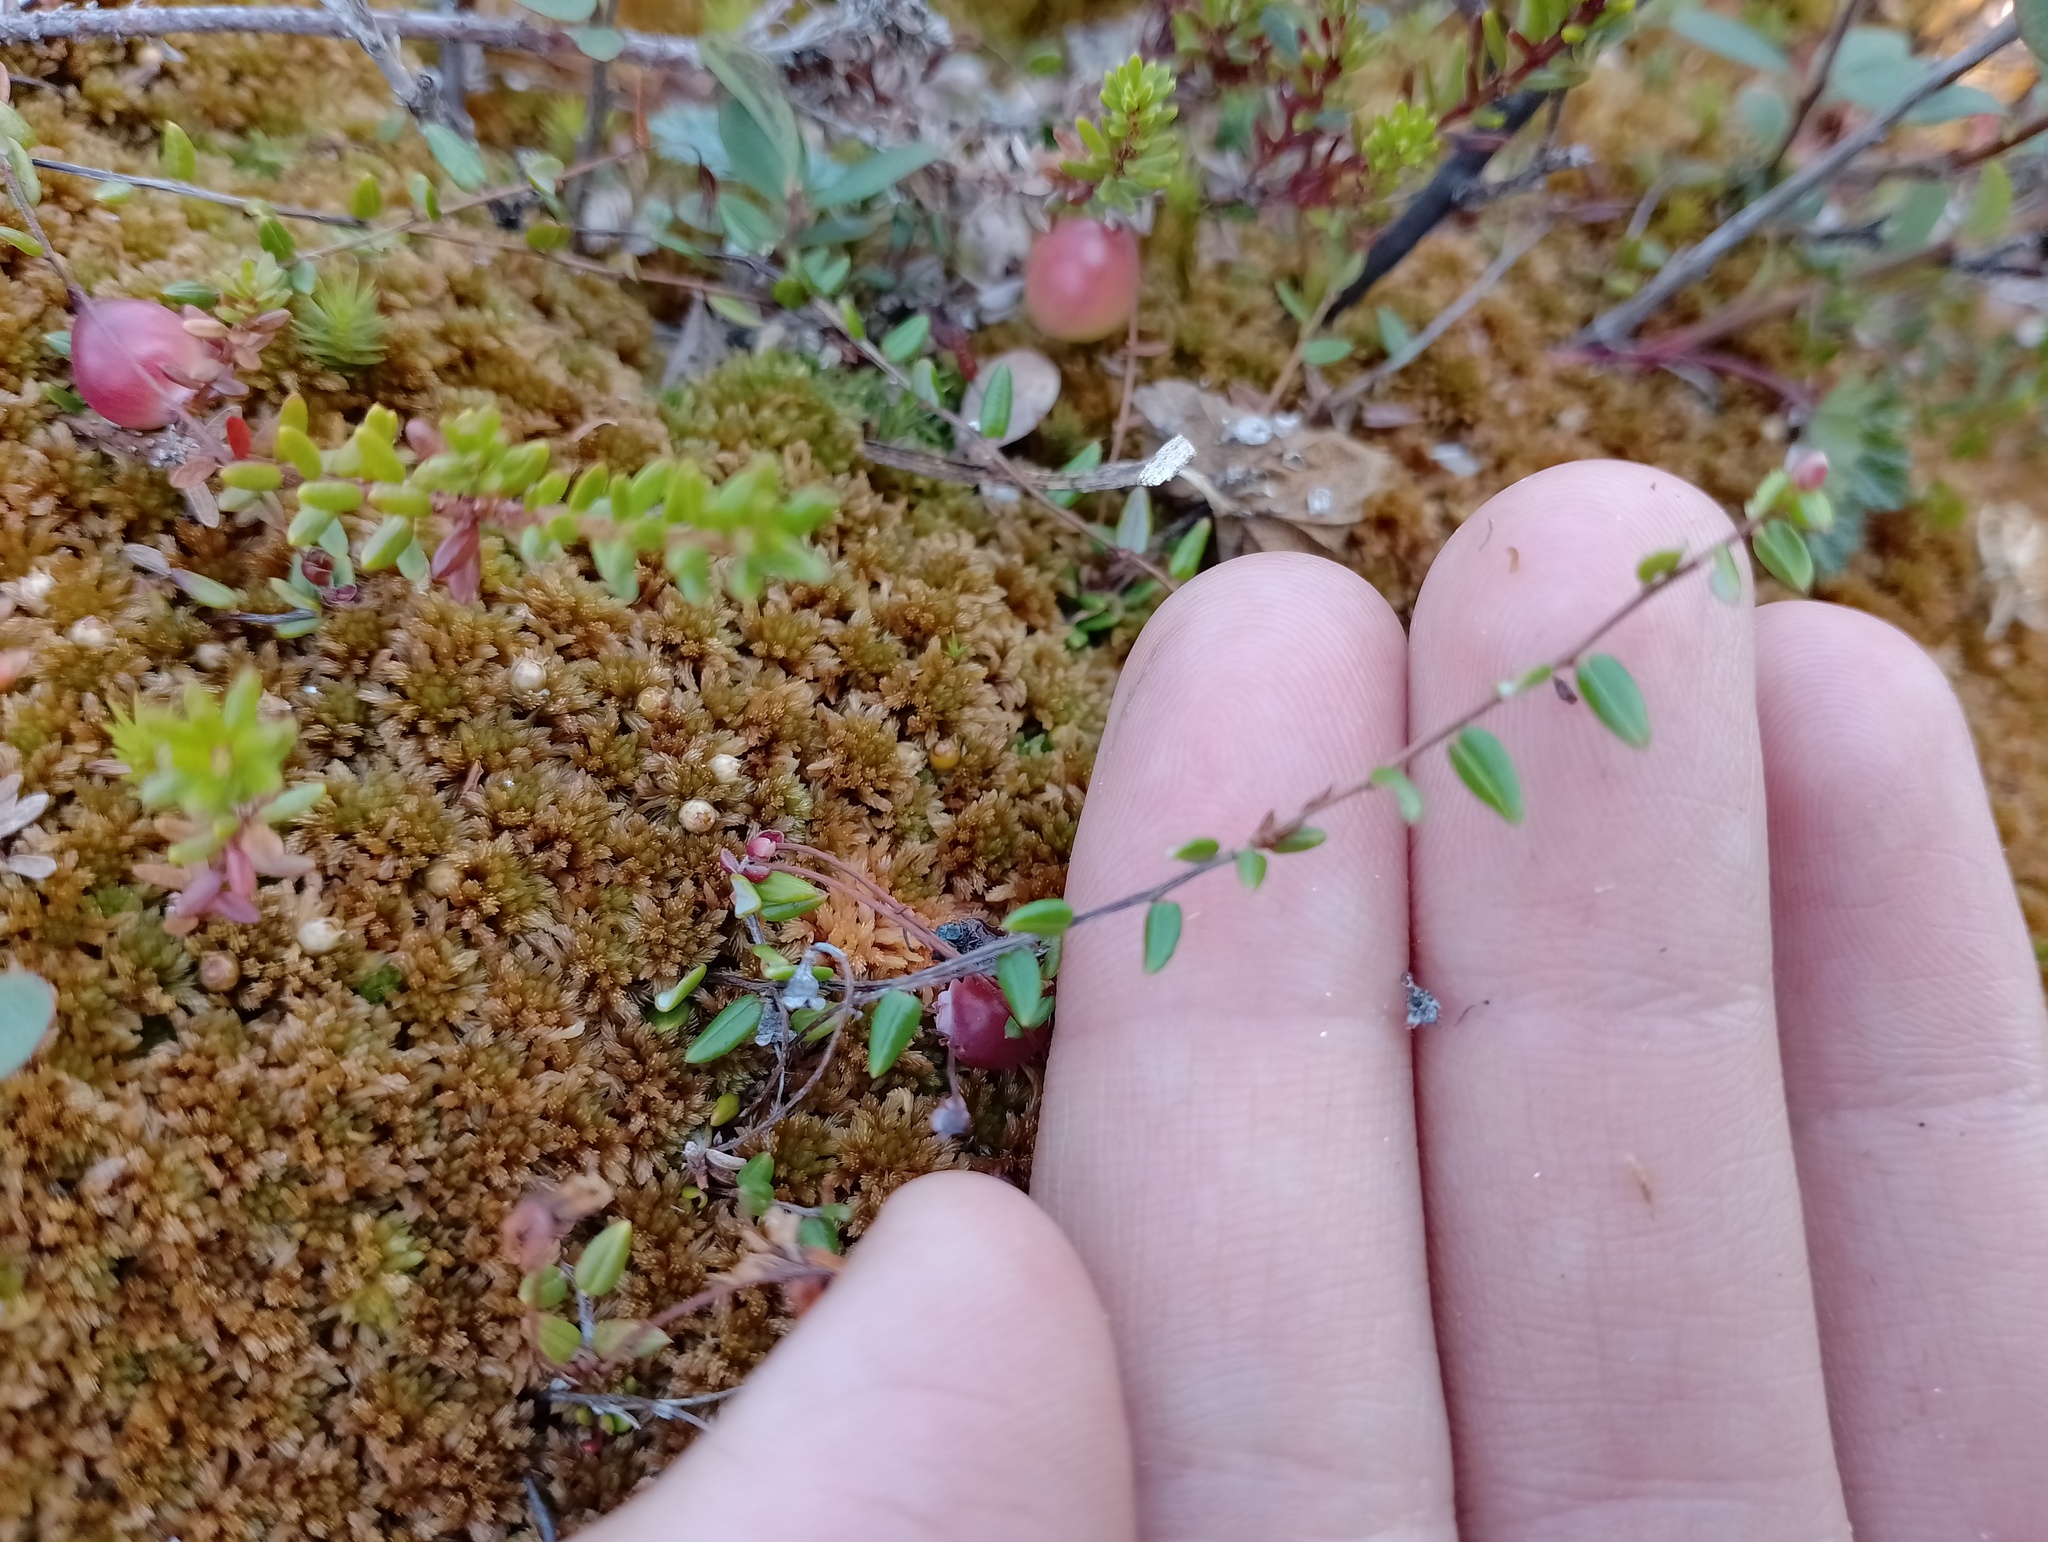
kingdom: Plantae
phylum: Tracheophyta
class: Magnoliopsida
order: Ericales
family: Ericaceae
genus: Vaccinium
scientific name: Vaccinium oxycoccos
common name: Cranberry
